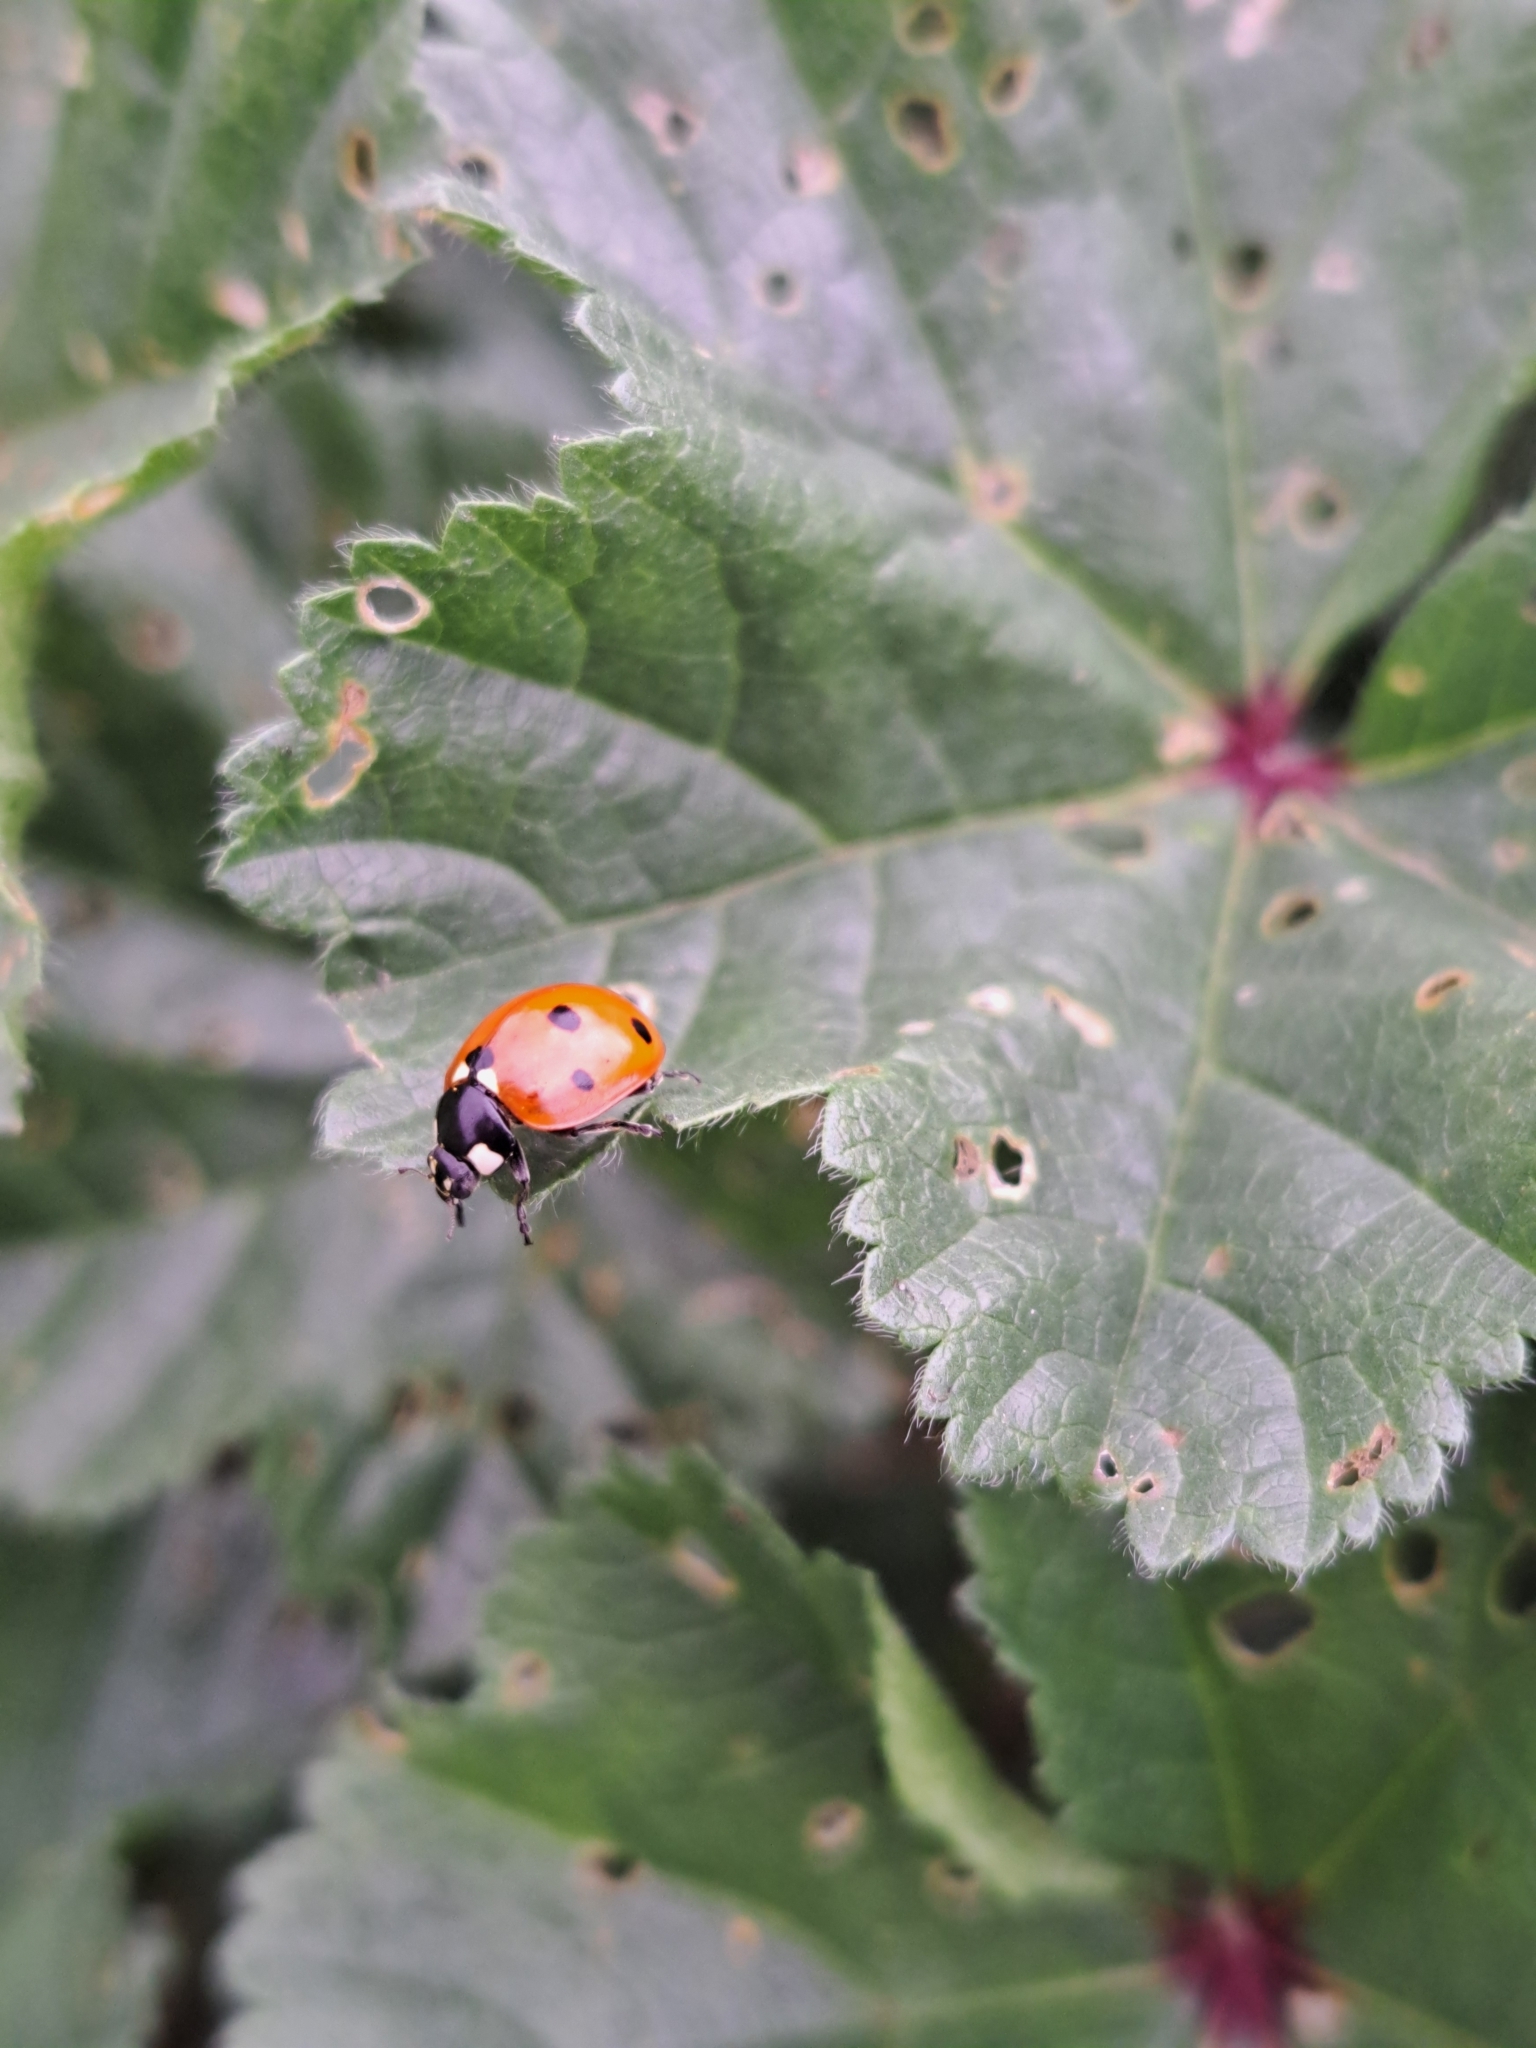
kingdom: Animalia
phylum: Arthropoda
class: Insecta
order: Coleoptera
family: Coccinellidae
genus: Coccinella
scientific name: Coccinella septempunctata
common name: Sevenspotted lady beetle
